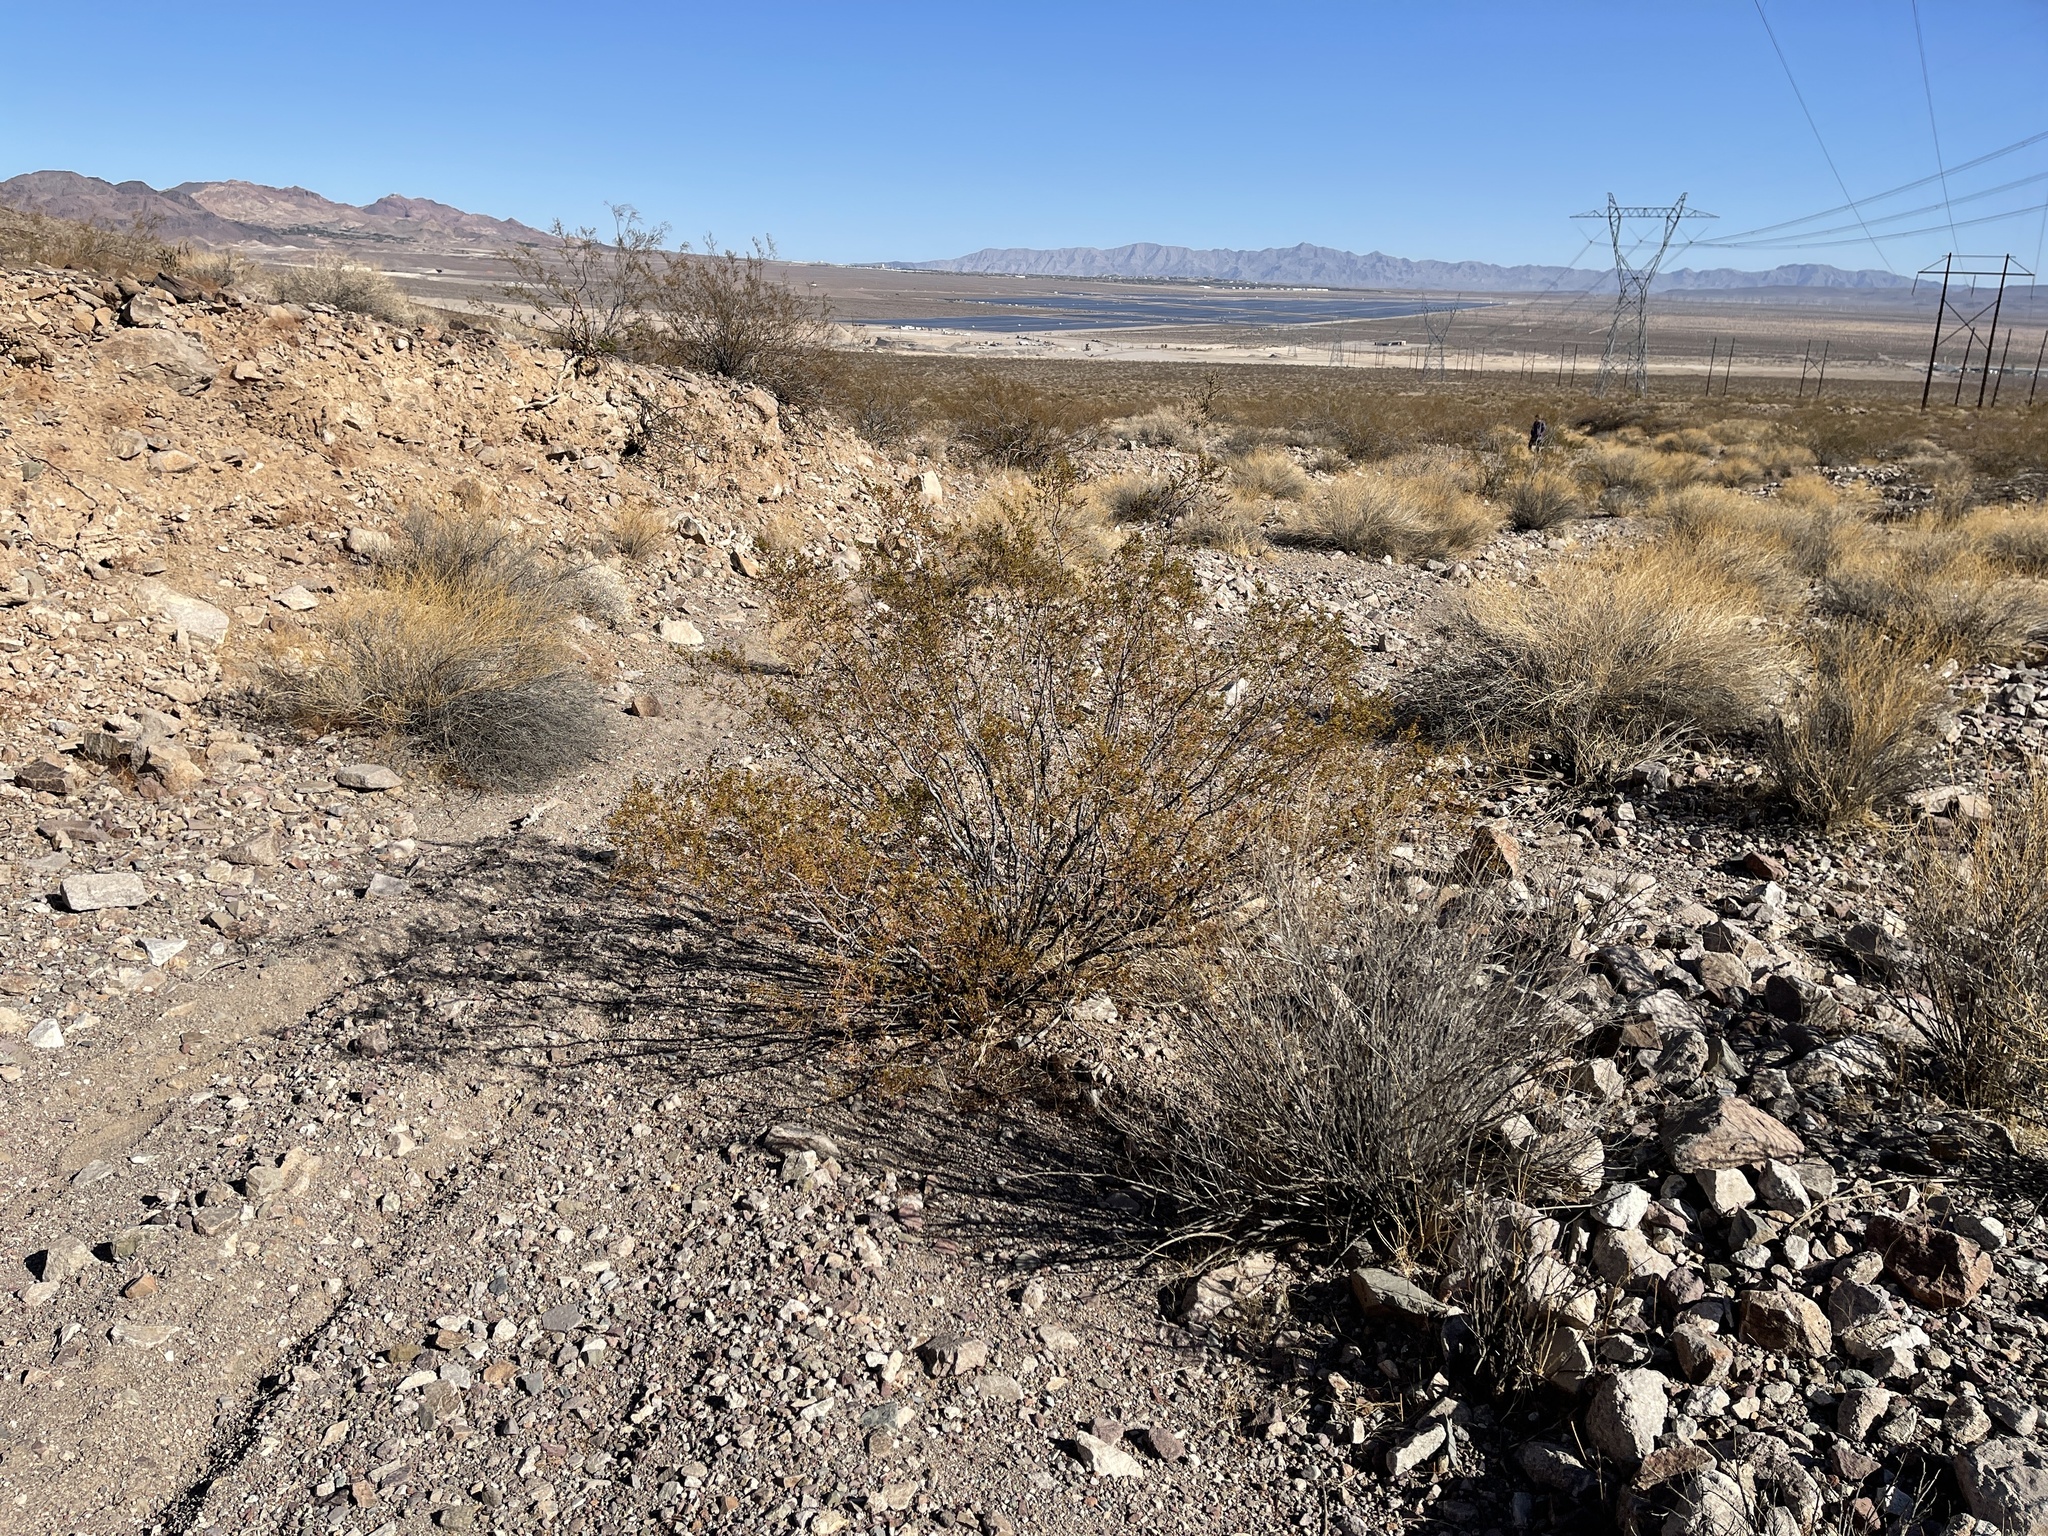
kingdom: Plantae
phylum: Tracheophyta
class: Magnoliopsida
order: Zygophyllales
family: Zygophyllaceae
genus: Larrea
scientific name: Larrea tridentata
